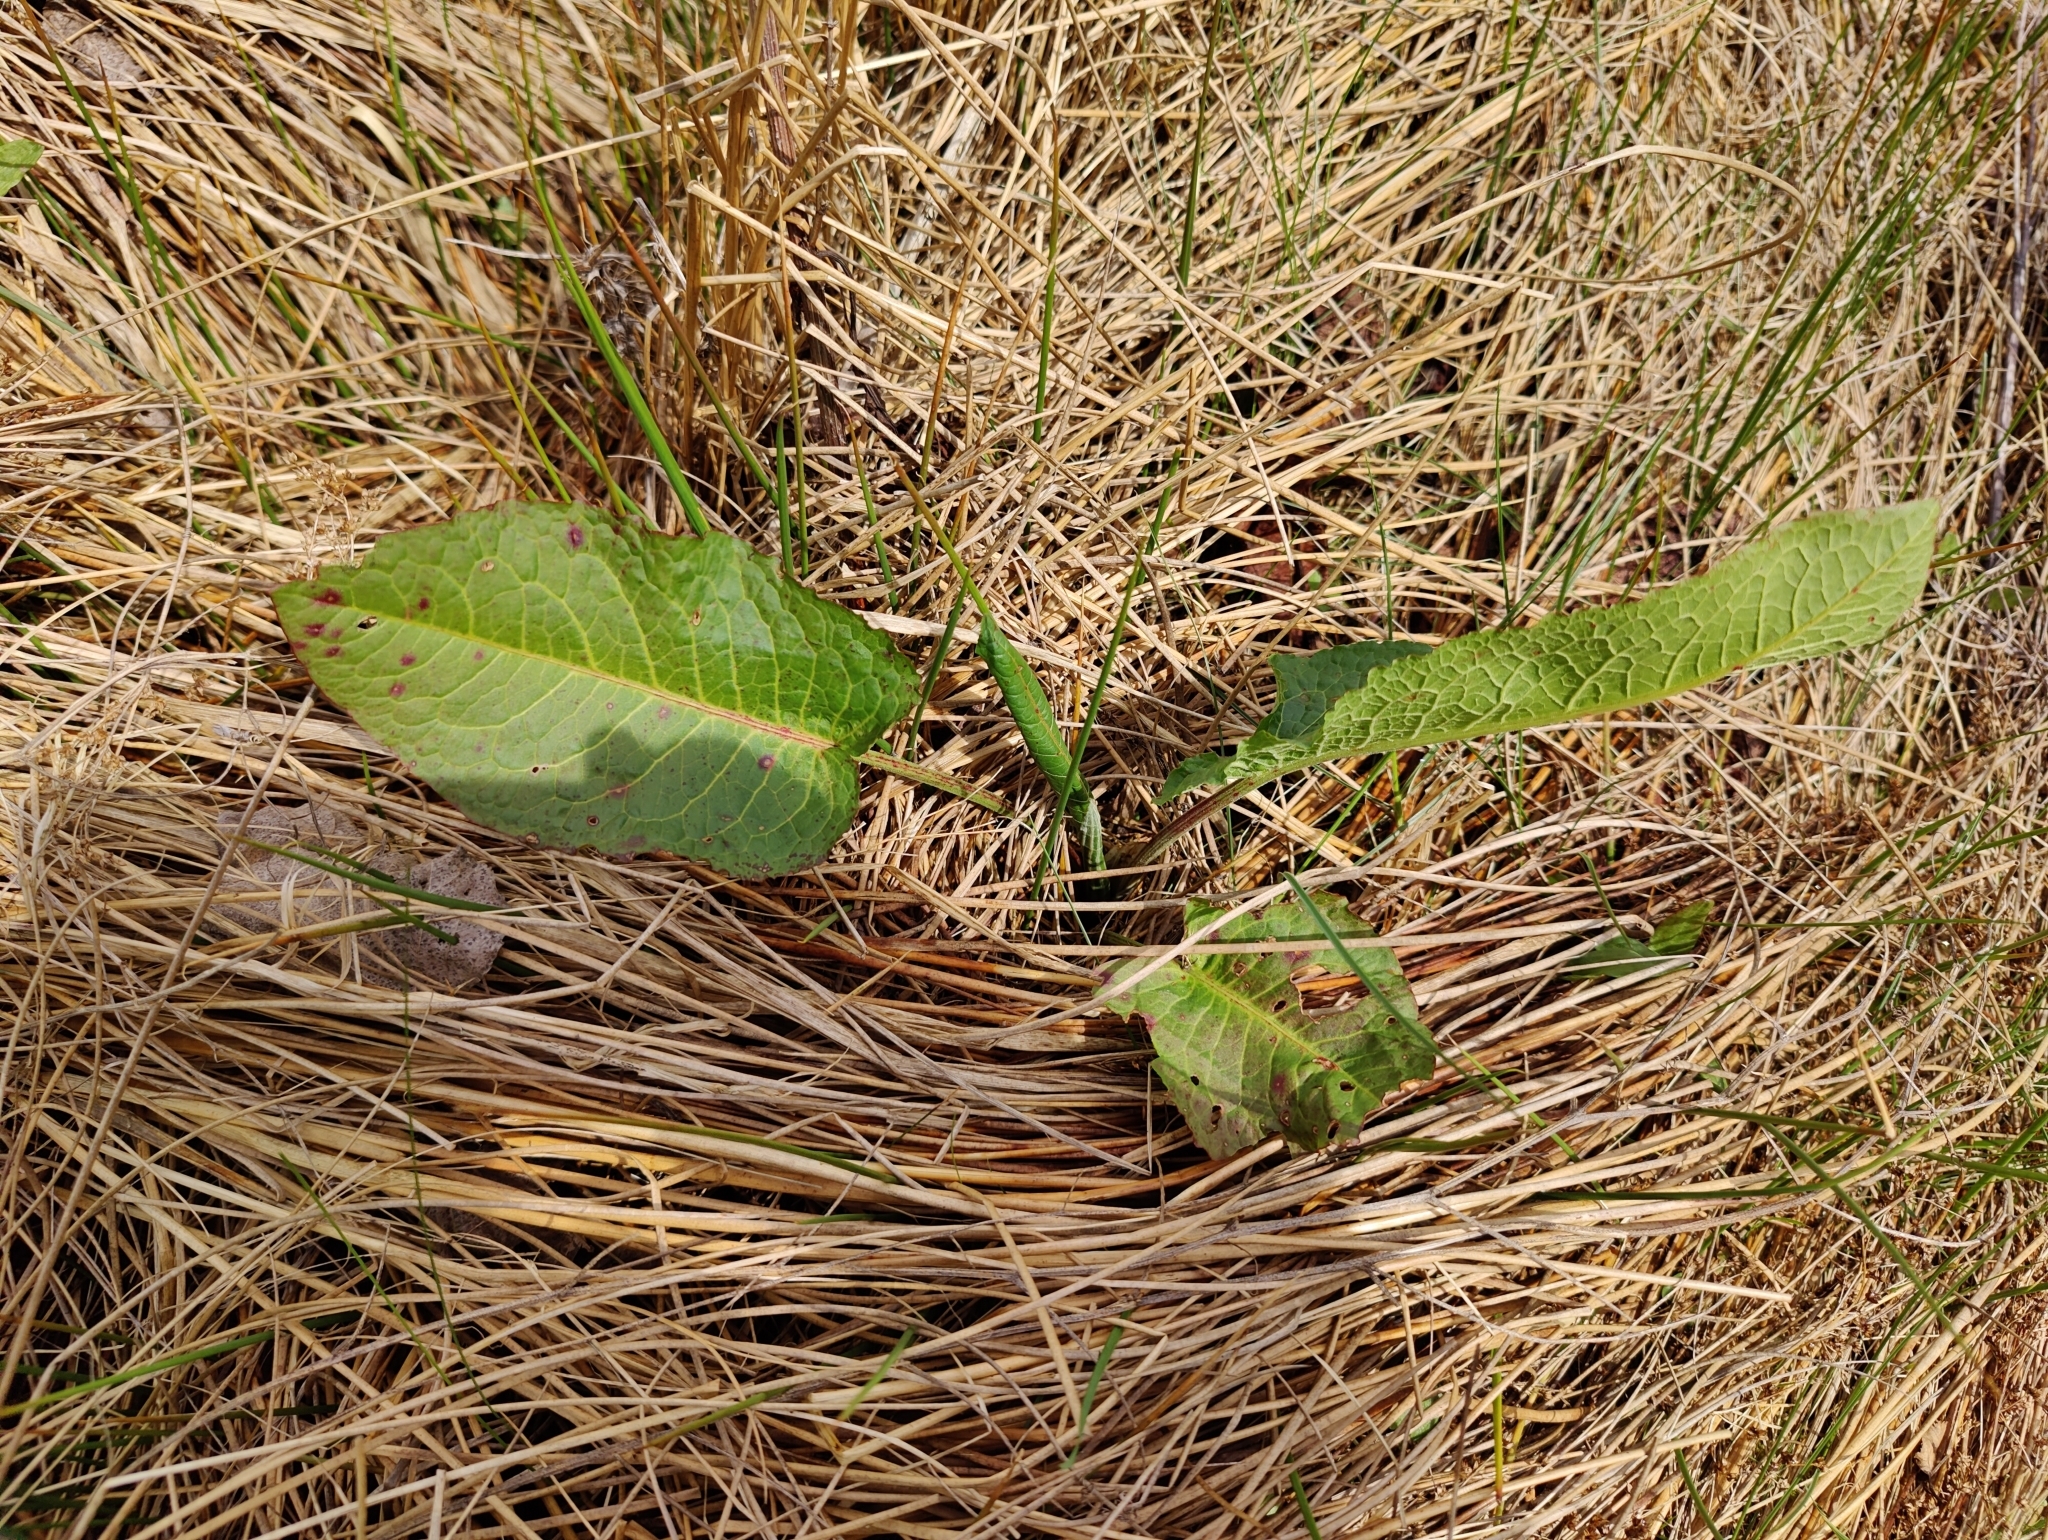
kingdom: Plantae
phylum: Tracheophyta
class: Magnoliopsida
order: Caryophyllales
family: Polygonaceae
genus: Rumex
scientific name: Rumex obtusifolius
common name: Bitter dock
